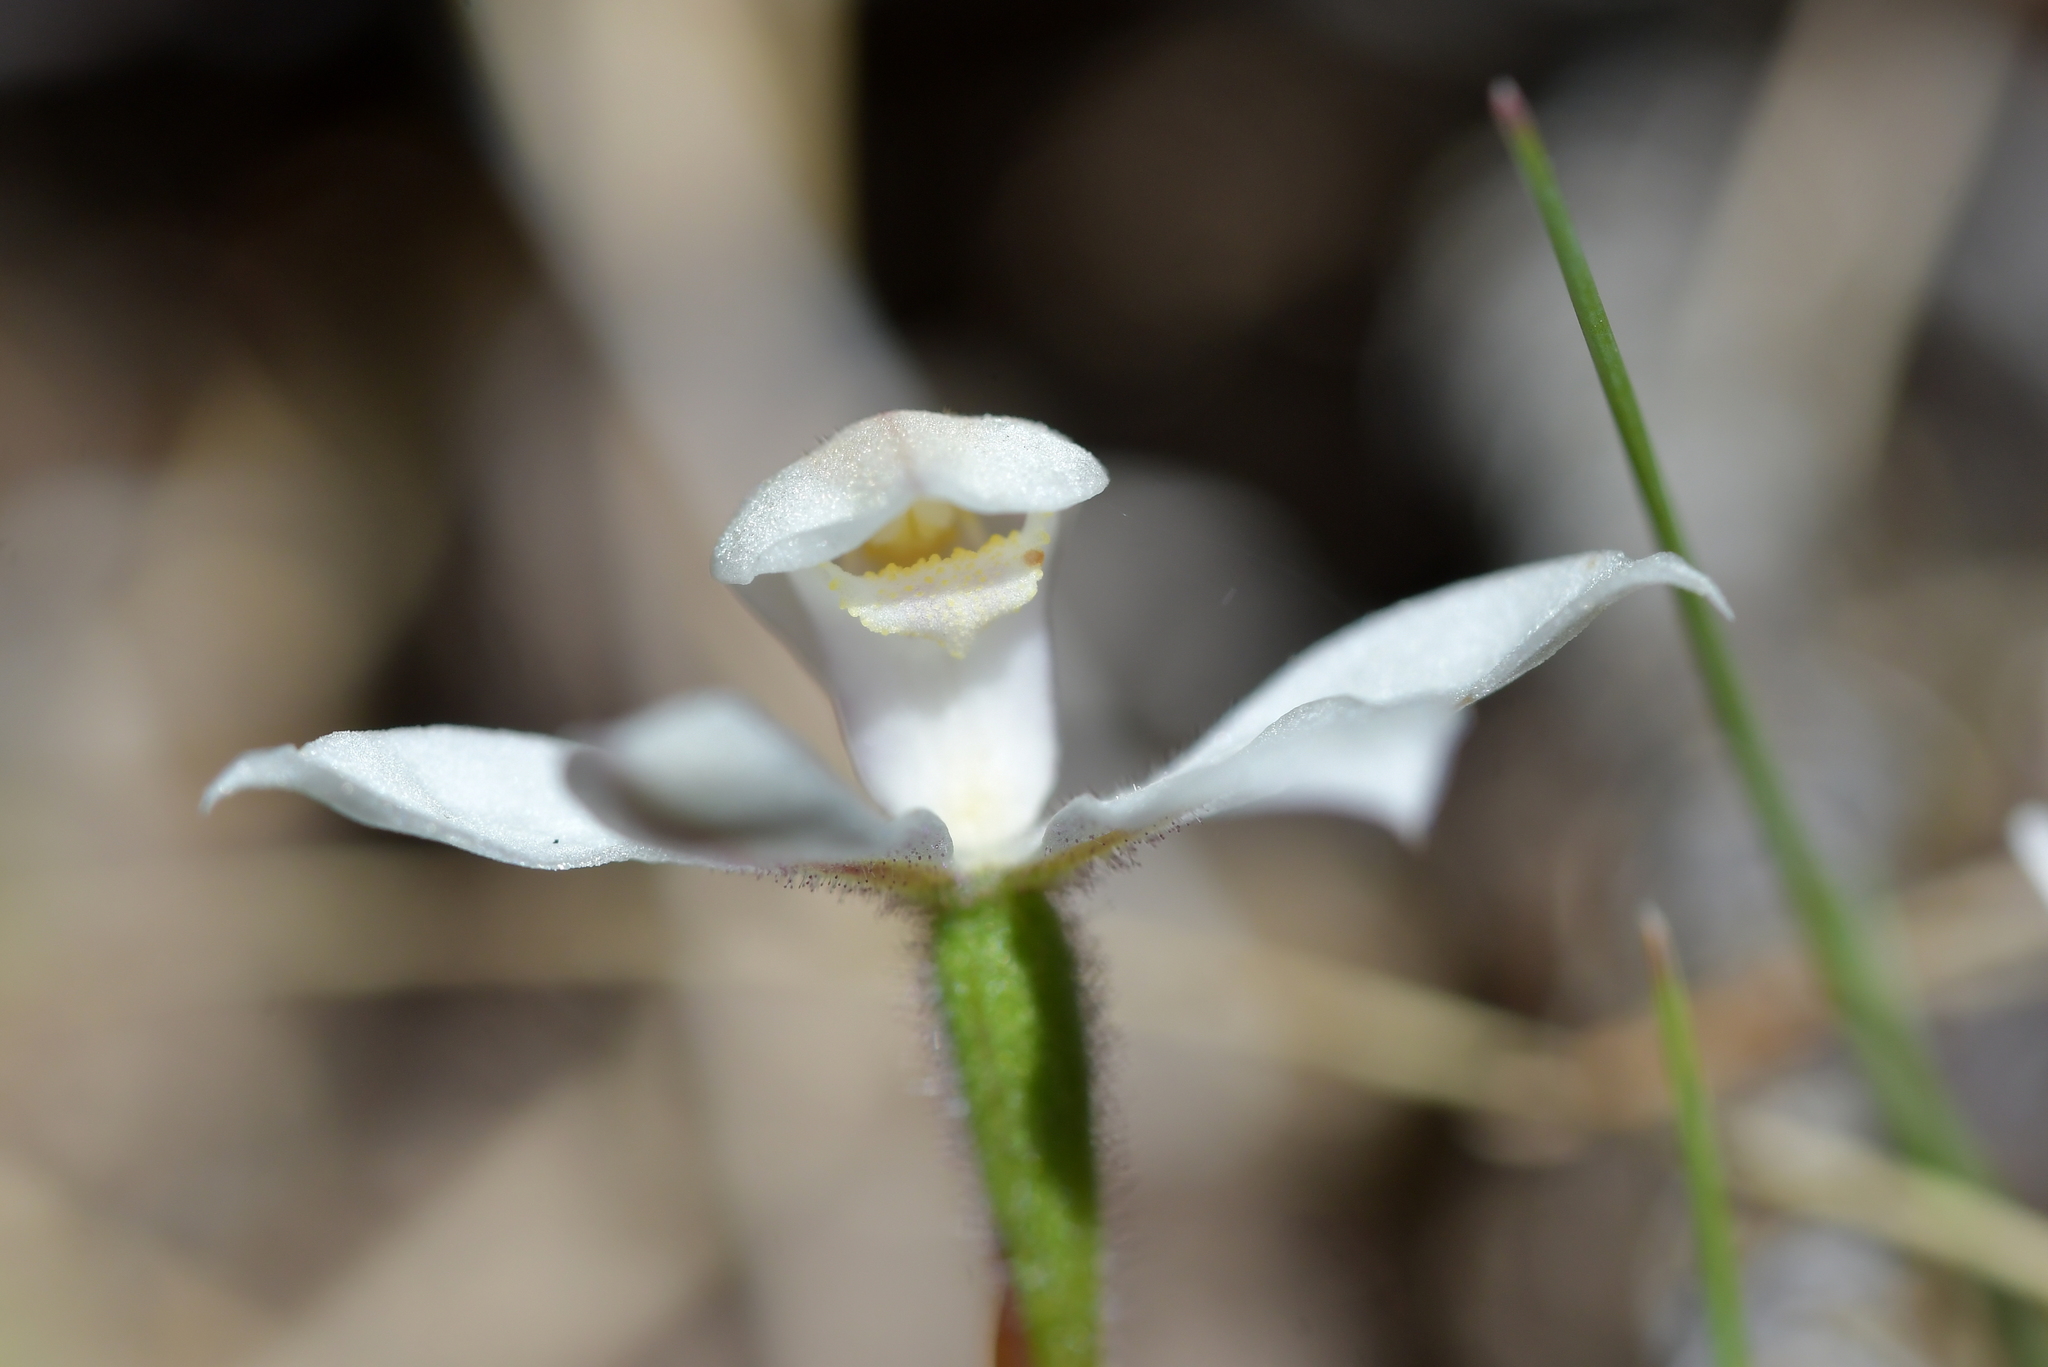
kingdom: Plantae
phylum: Tracheophyta
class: Liliopsida
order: Asparagales
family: Orchidaceae
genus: Caladenia
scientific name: Caladenia lyallii
